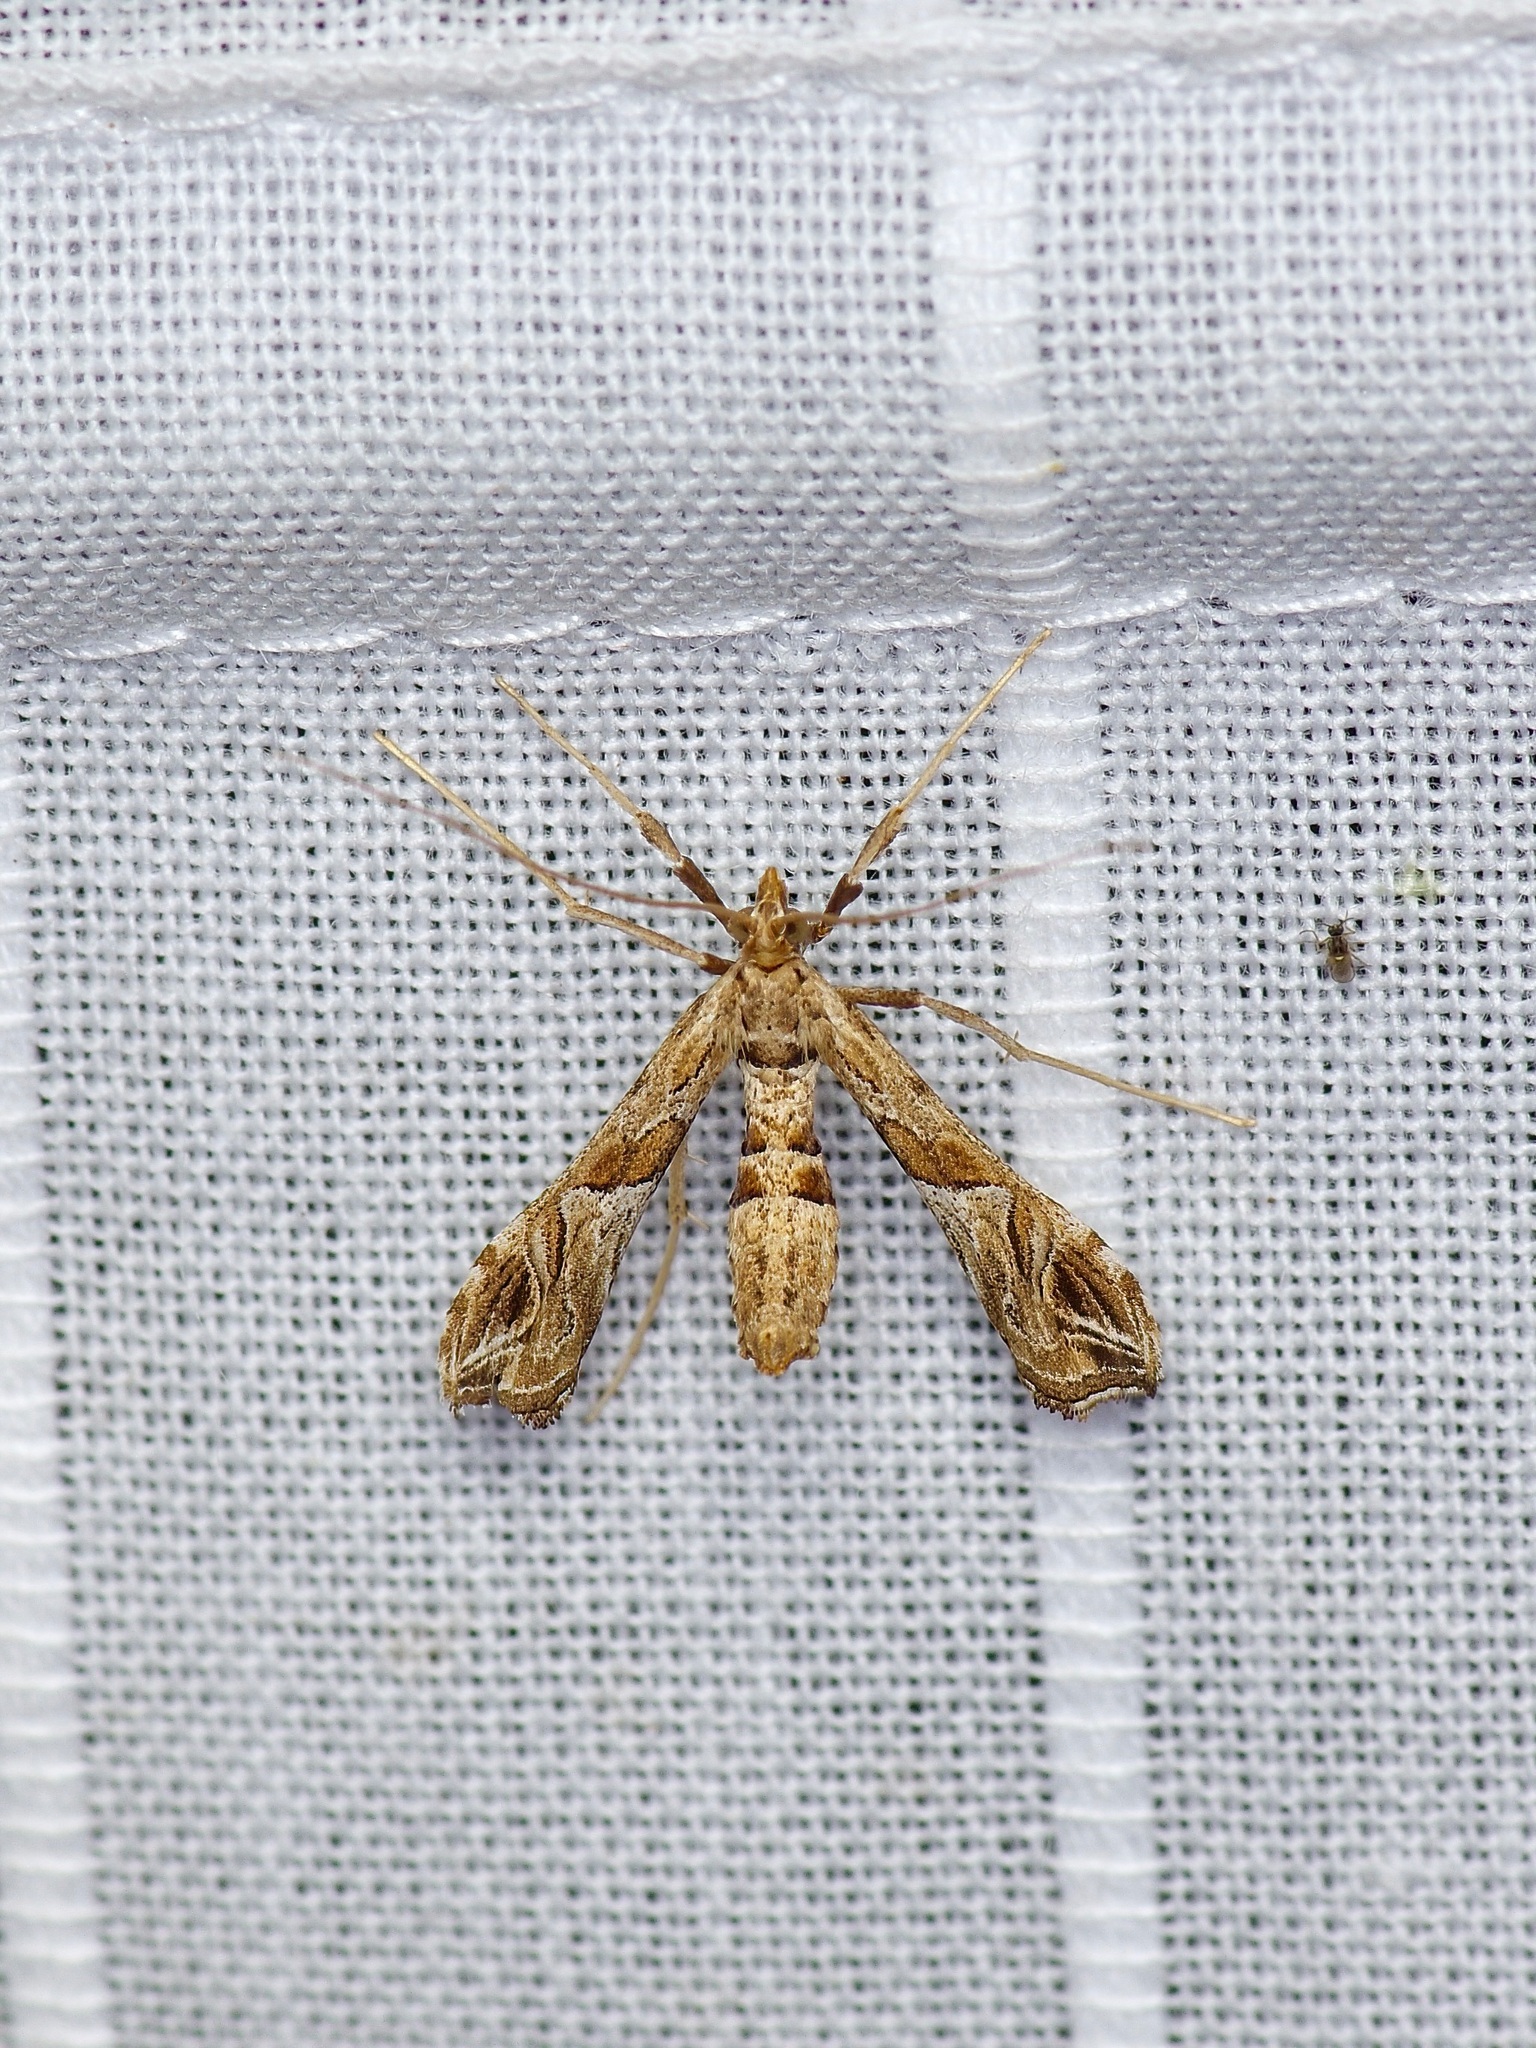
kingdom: Animalia
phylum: Arthropoda
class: Insecta
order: Lepidoptera
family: Crambidae
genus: Lineodes
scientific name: Lineodes interrupta
